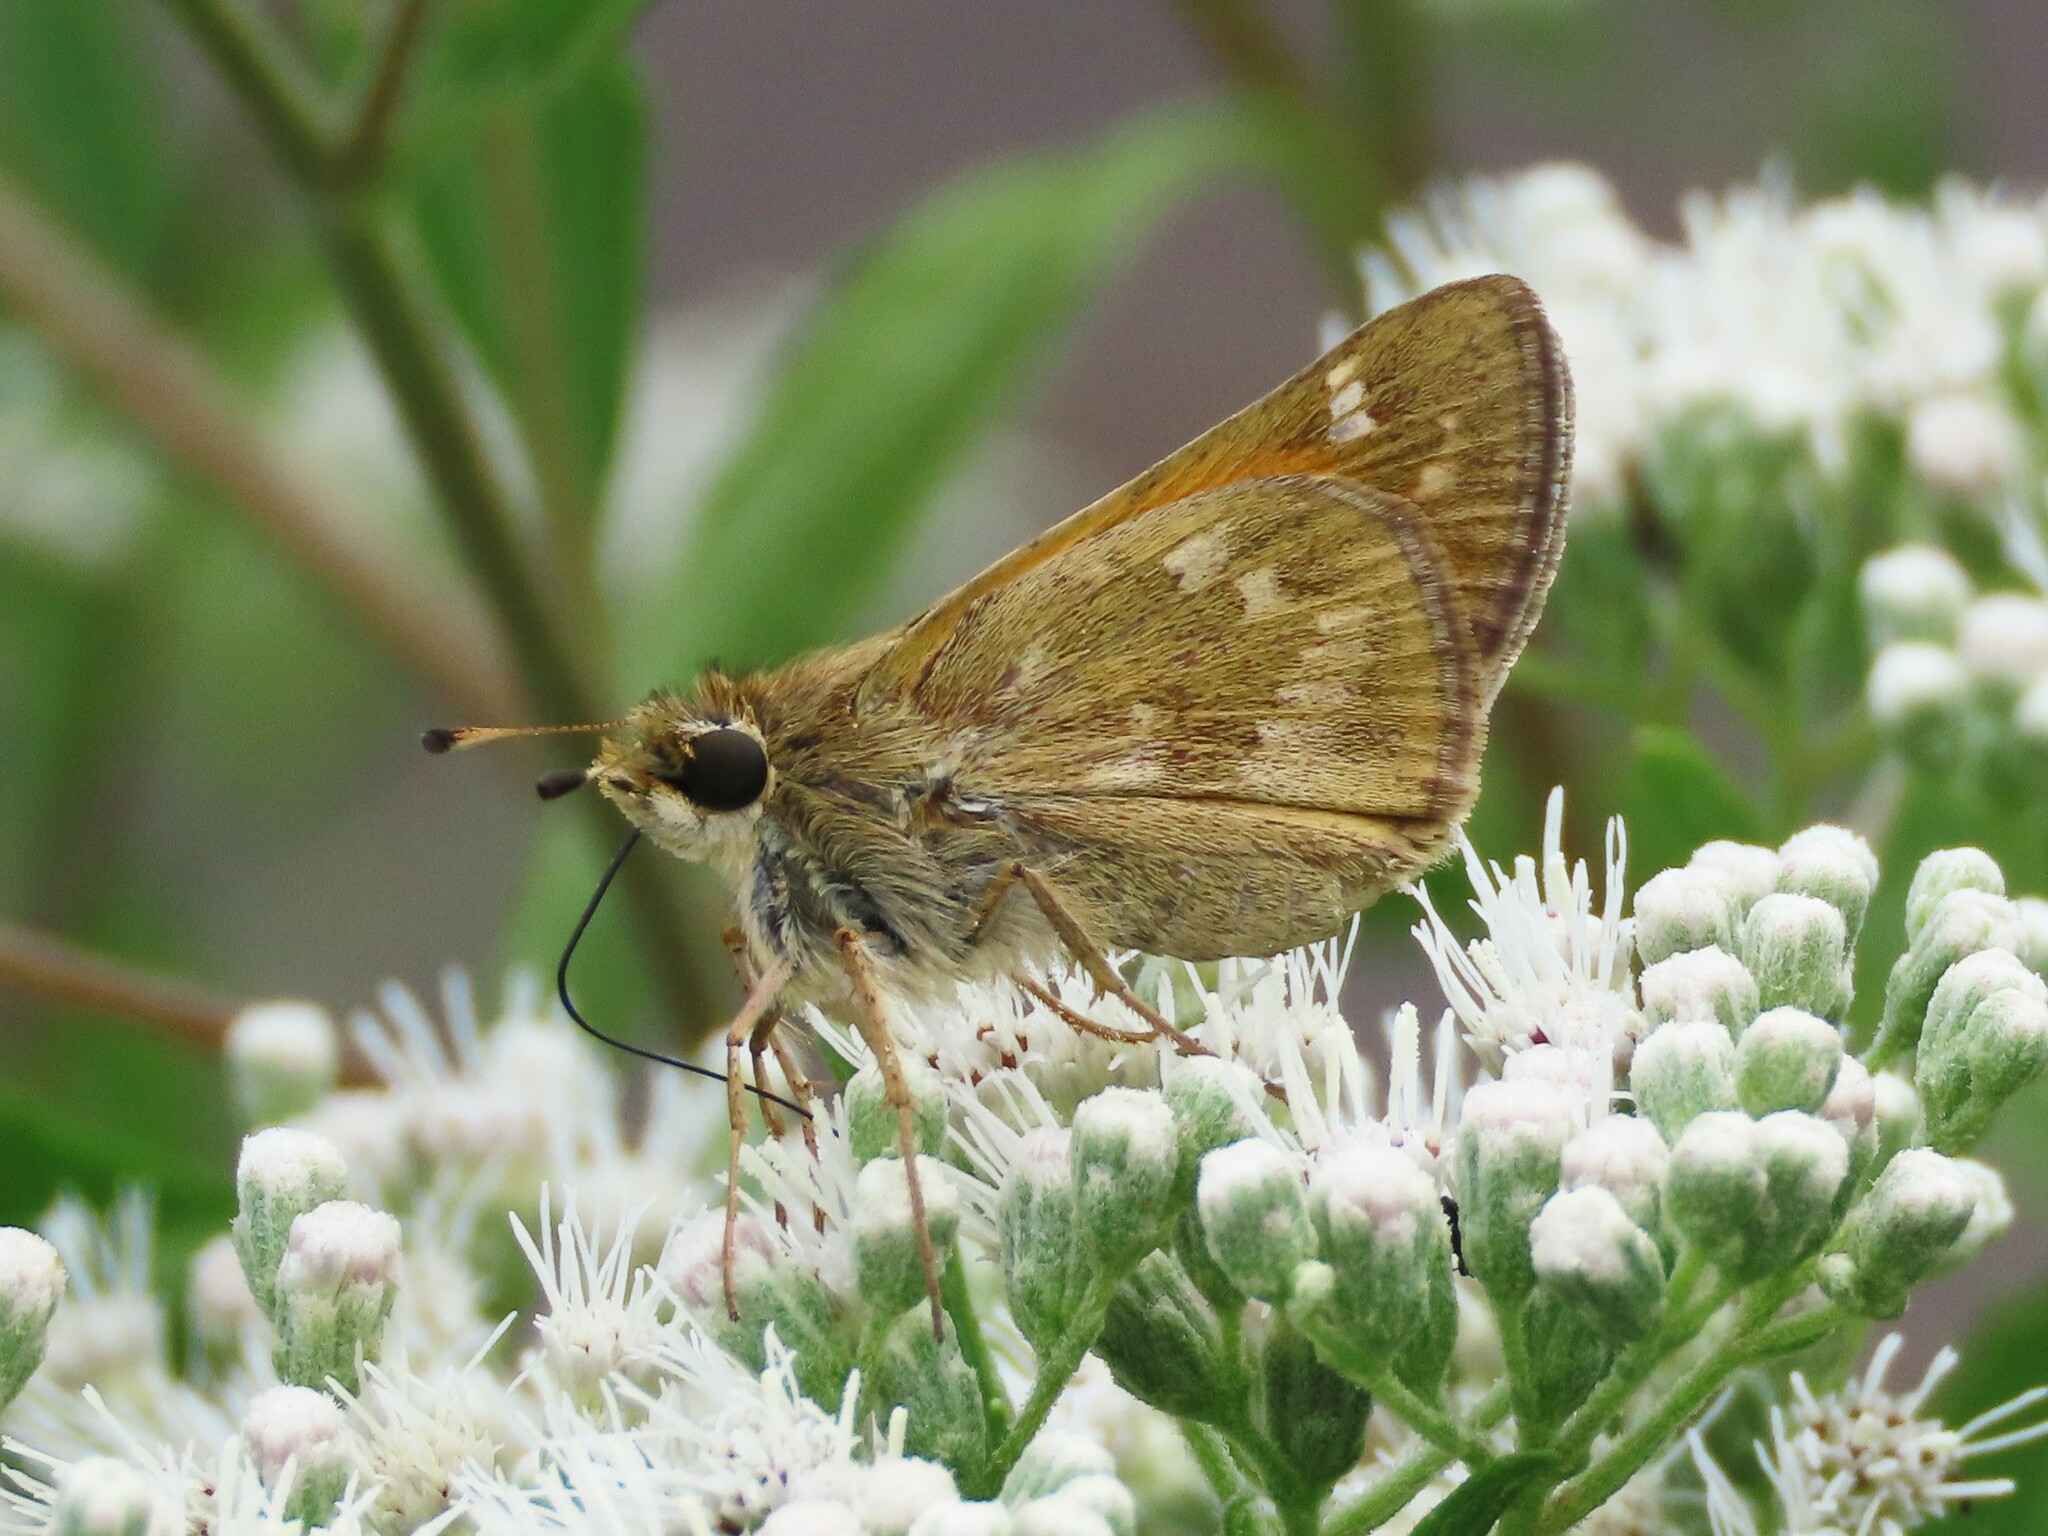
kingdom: Animalia
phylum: Arthropoda
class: Insecta
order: Lepidoptera
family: Hesperiidae
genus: Atalopedes
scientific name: Atalopedes
